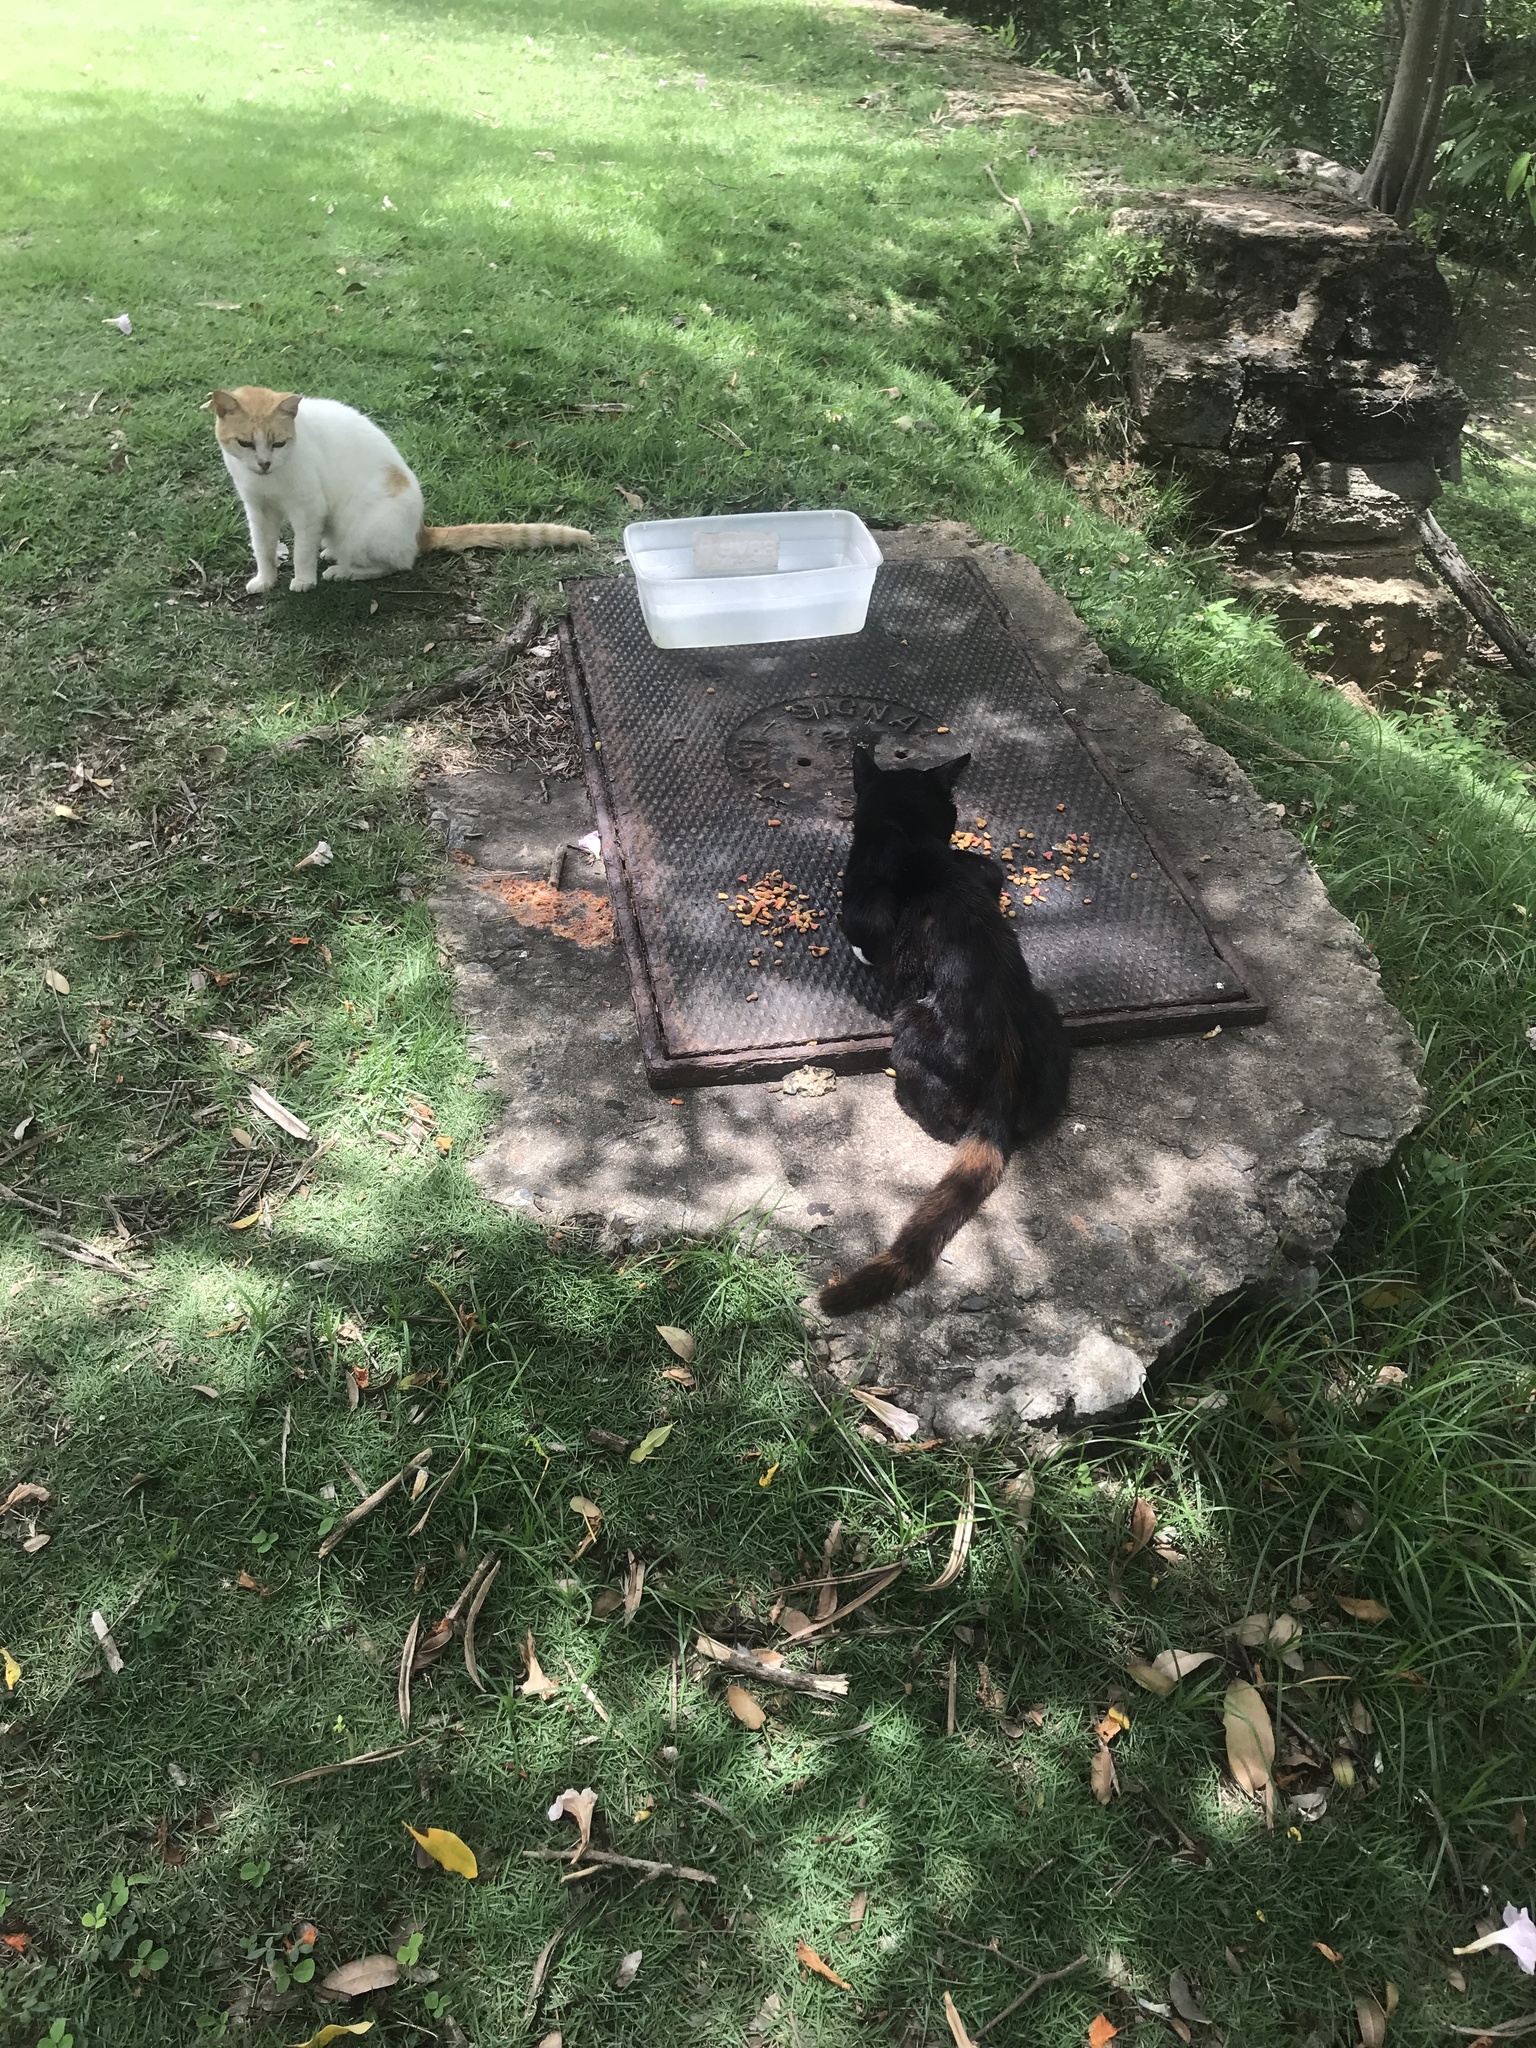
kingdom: Animalia
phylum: Chordata
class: Mammalia
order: Carnivora
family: Felidae
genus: Felis
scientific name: Felis catus
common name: Domestic cat
